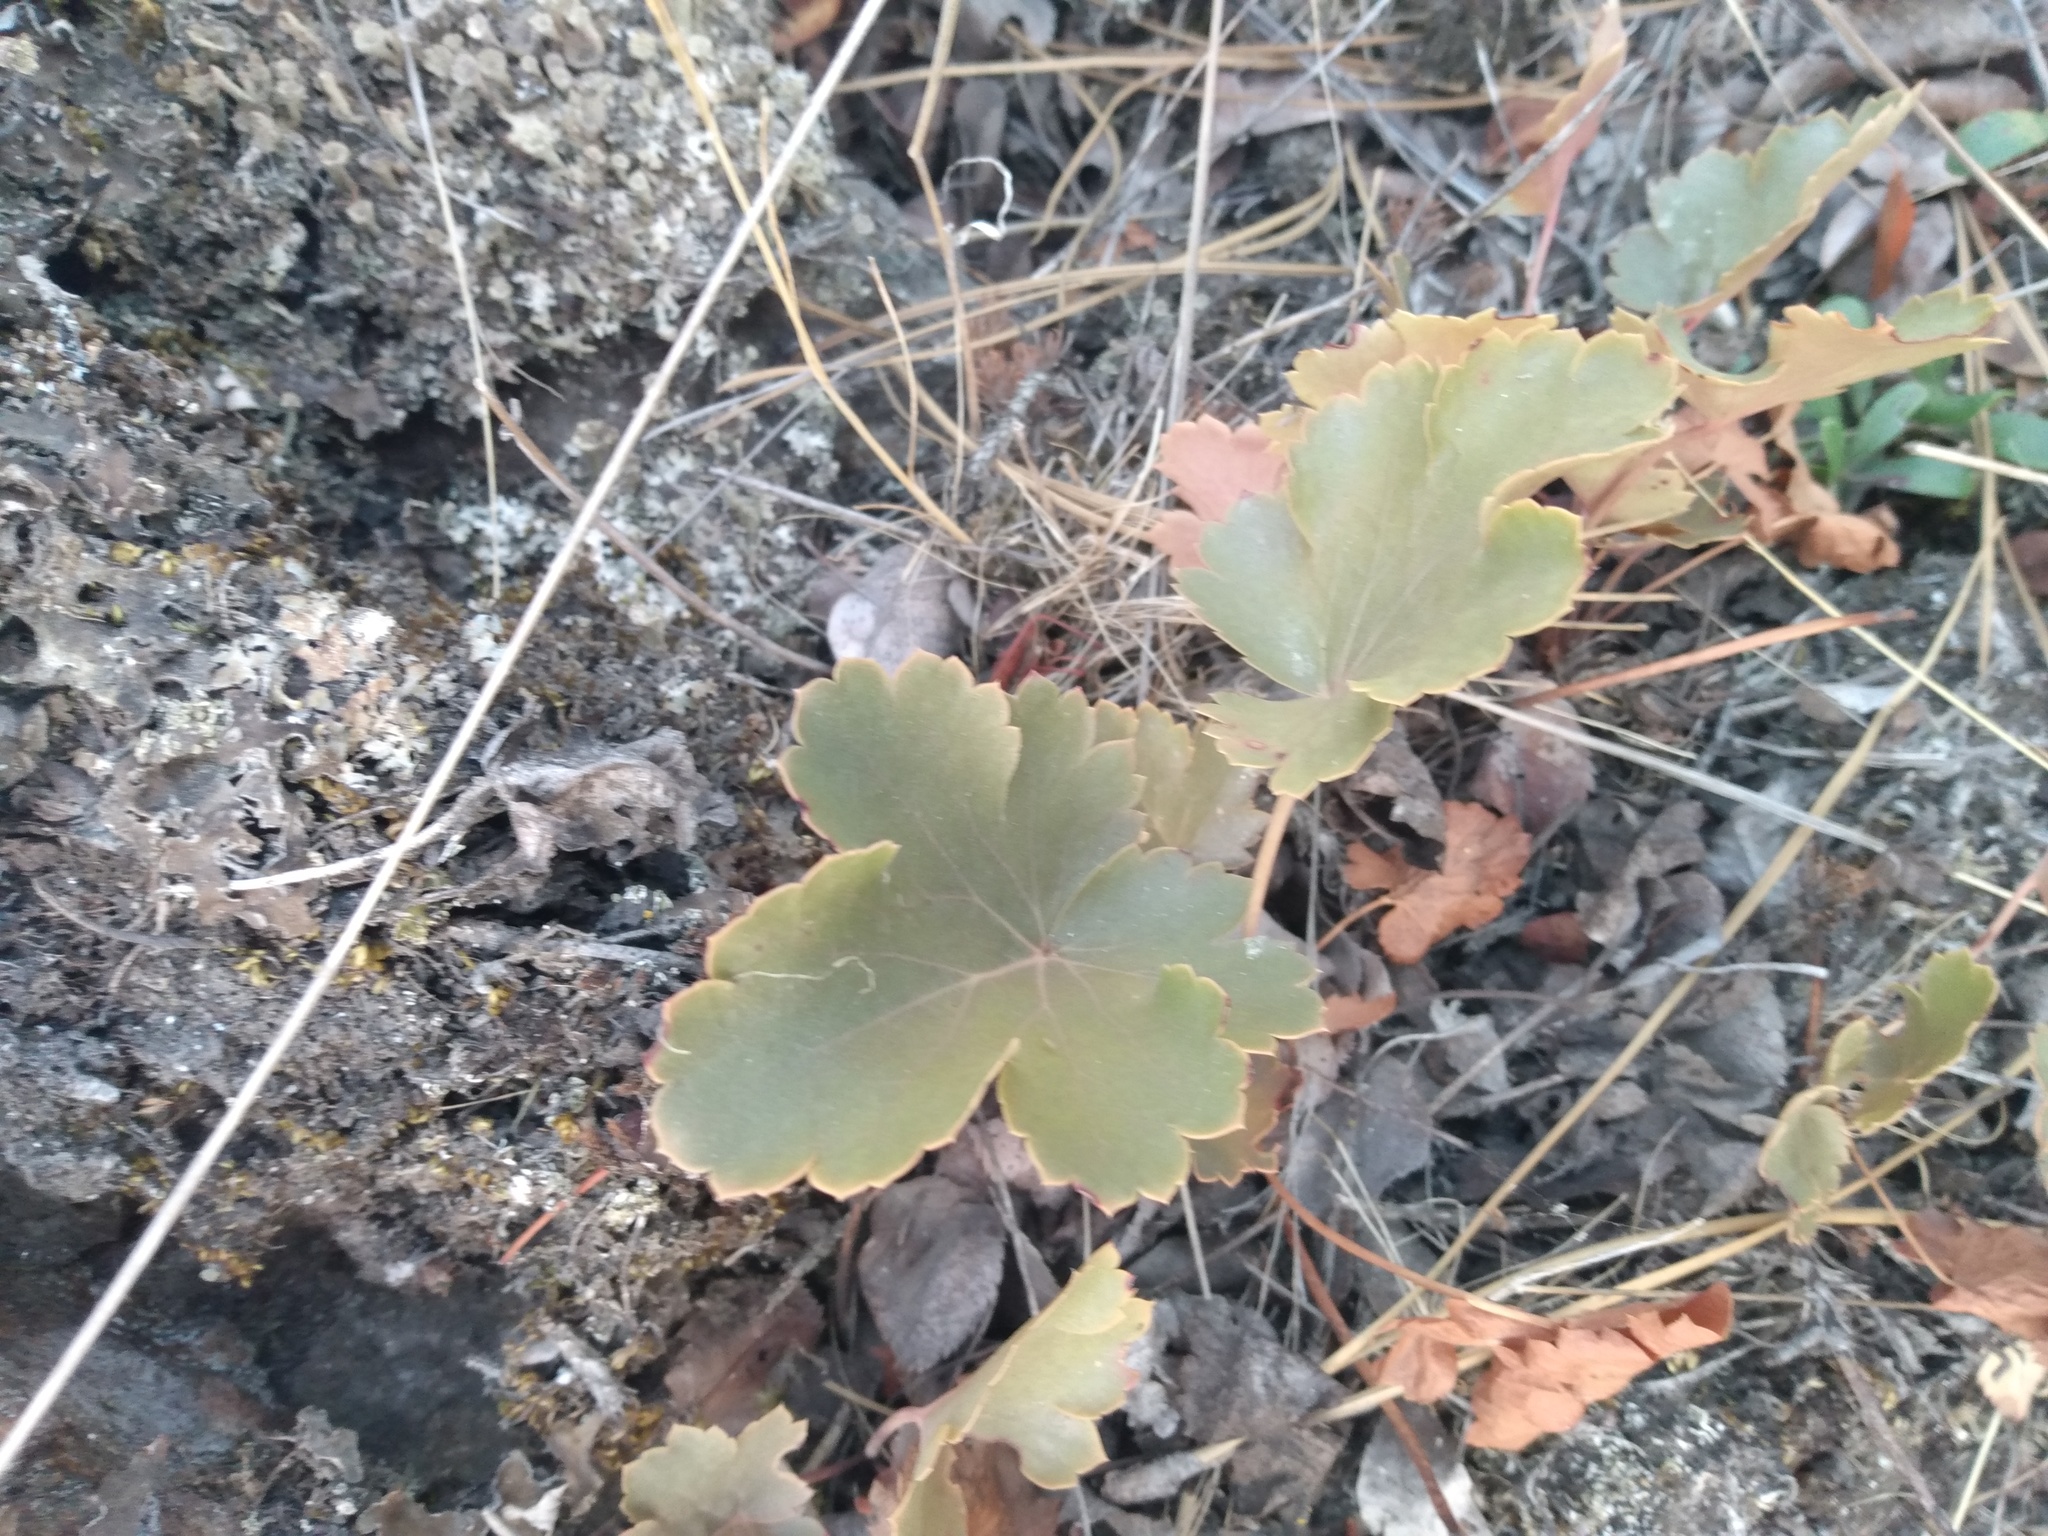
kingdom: Plantae
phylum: Tracheophyta
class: Magnoliopsida
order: Saxifragales
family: Saxifragaceae
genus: Heuchera
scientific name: Heuchera cylindrica
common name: Mat alumroot
